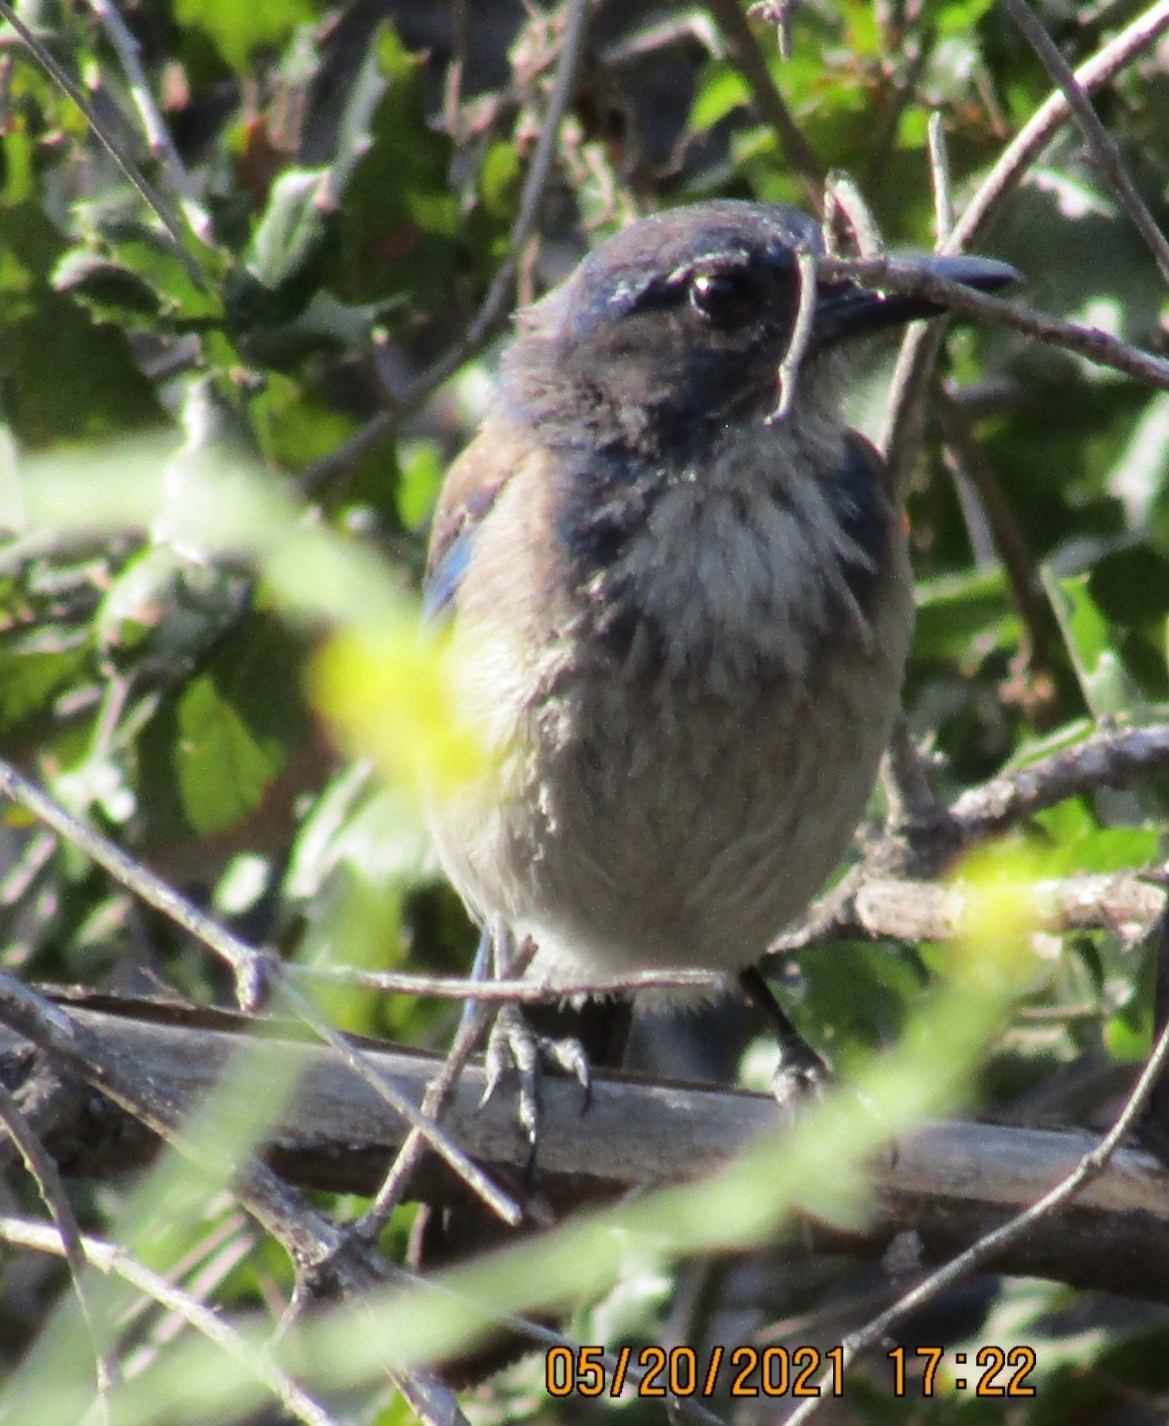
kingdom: Animalia
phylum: Chordata
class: Aves
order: Passeriformes
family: Corvidae
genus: Aphelocoma
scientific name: Aphelocoma californica
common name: California scrub-jay
